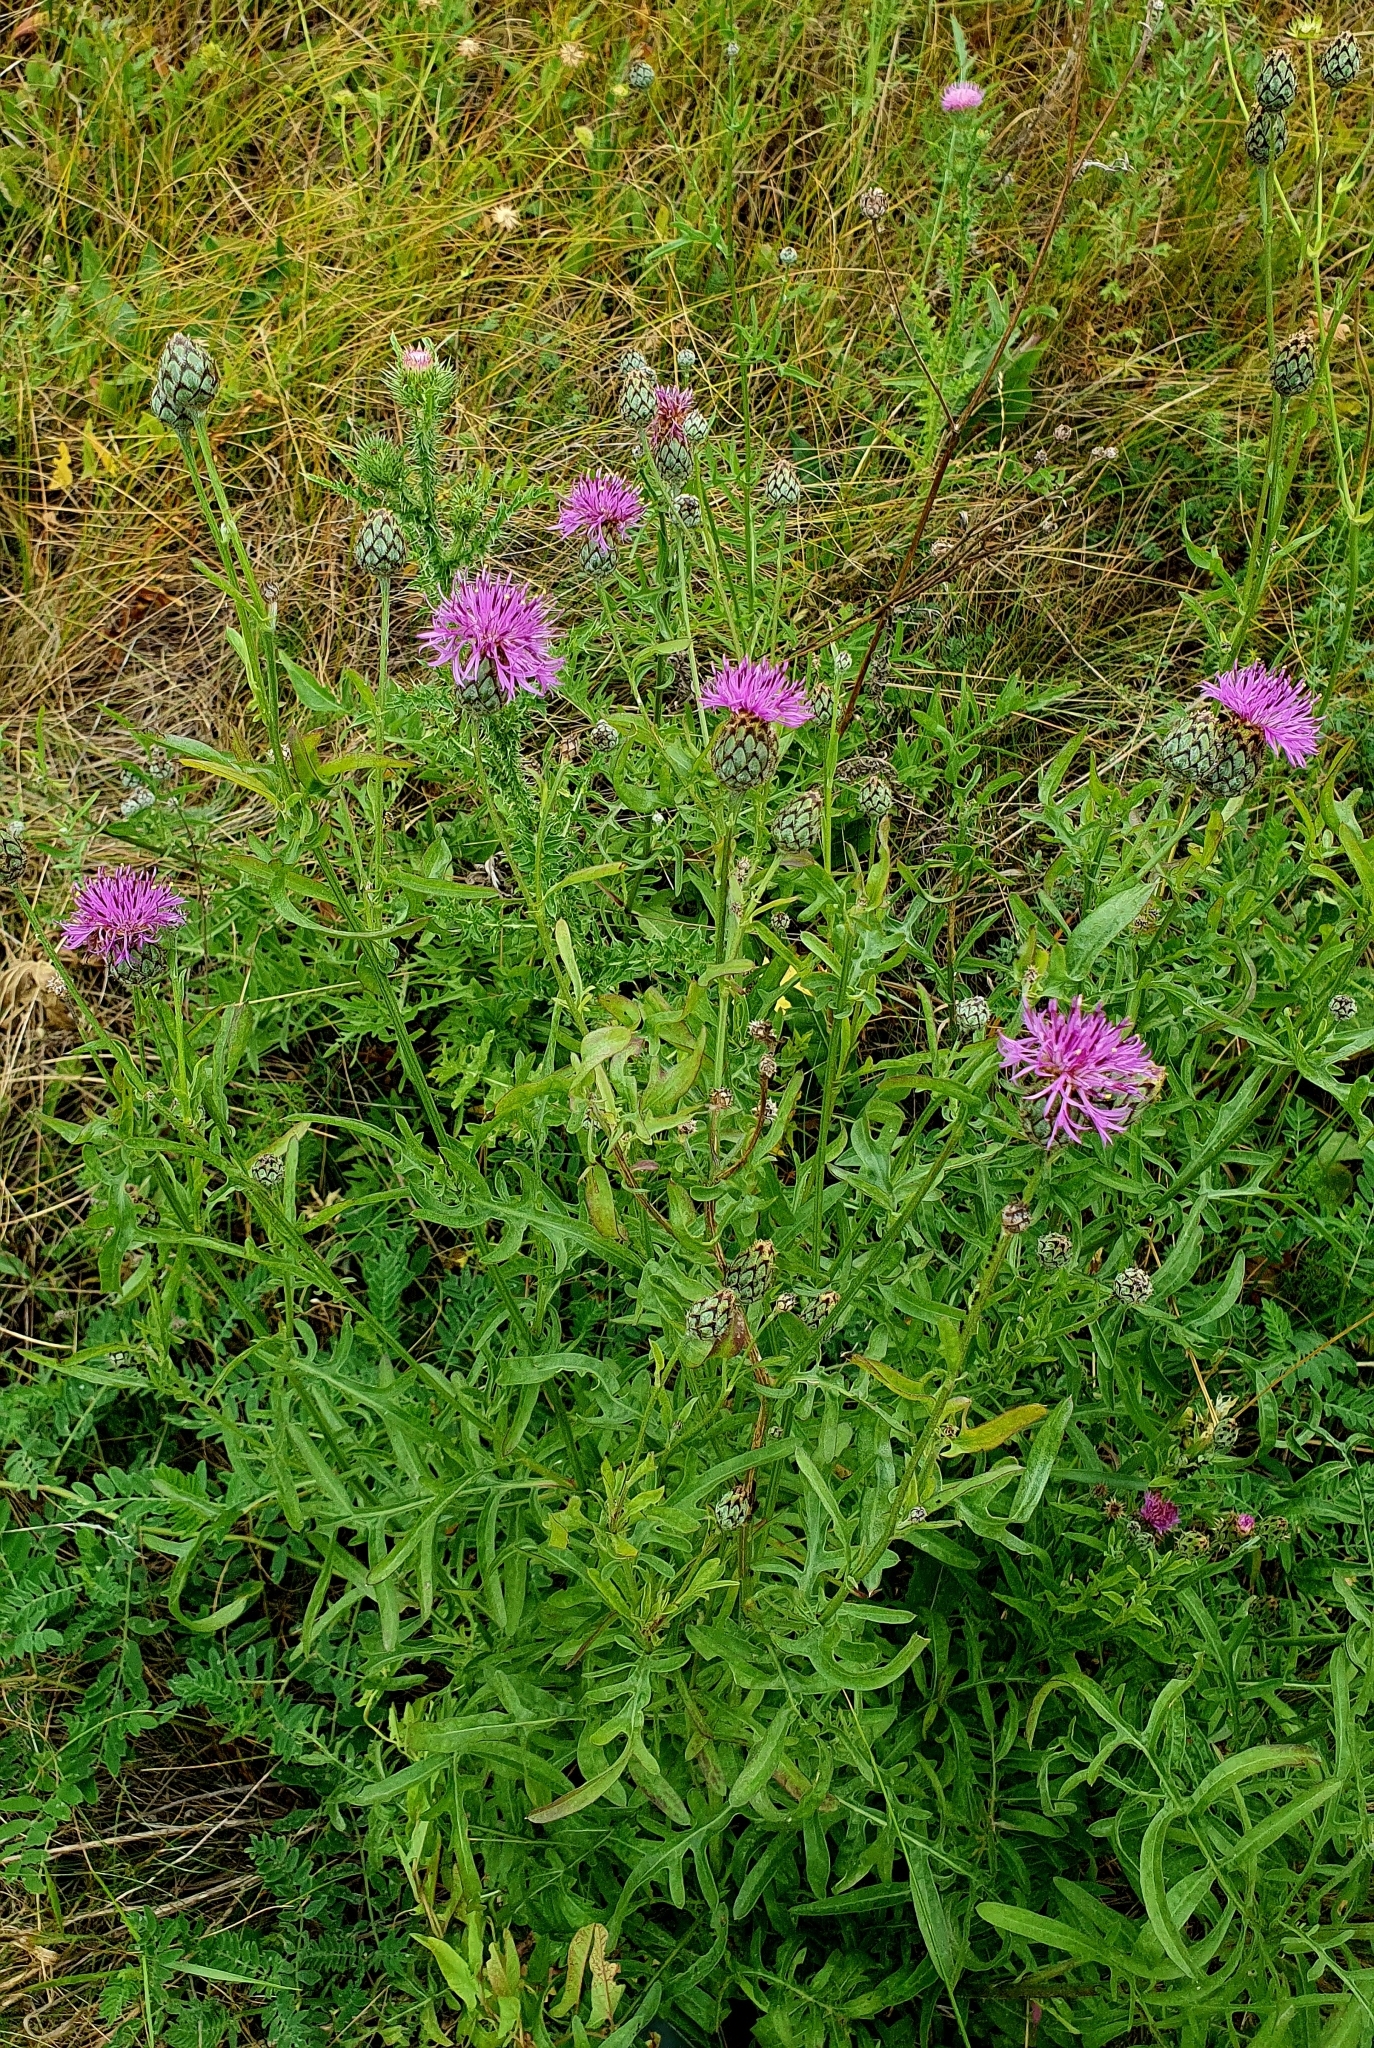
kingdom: Plantae
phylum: Tracheophyta
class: Magnoliopsida
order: Asterales
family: Asteraceae
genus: Centaurea
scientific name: Centaurea scabiosa
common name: Greater knapweed
